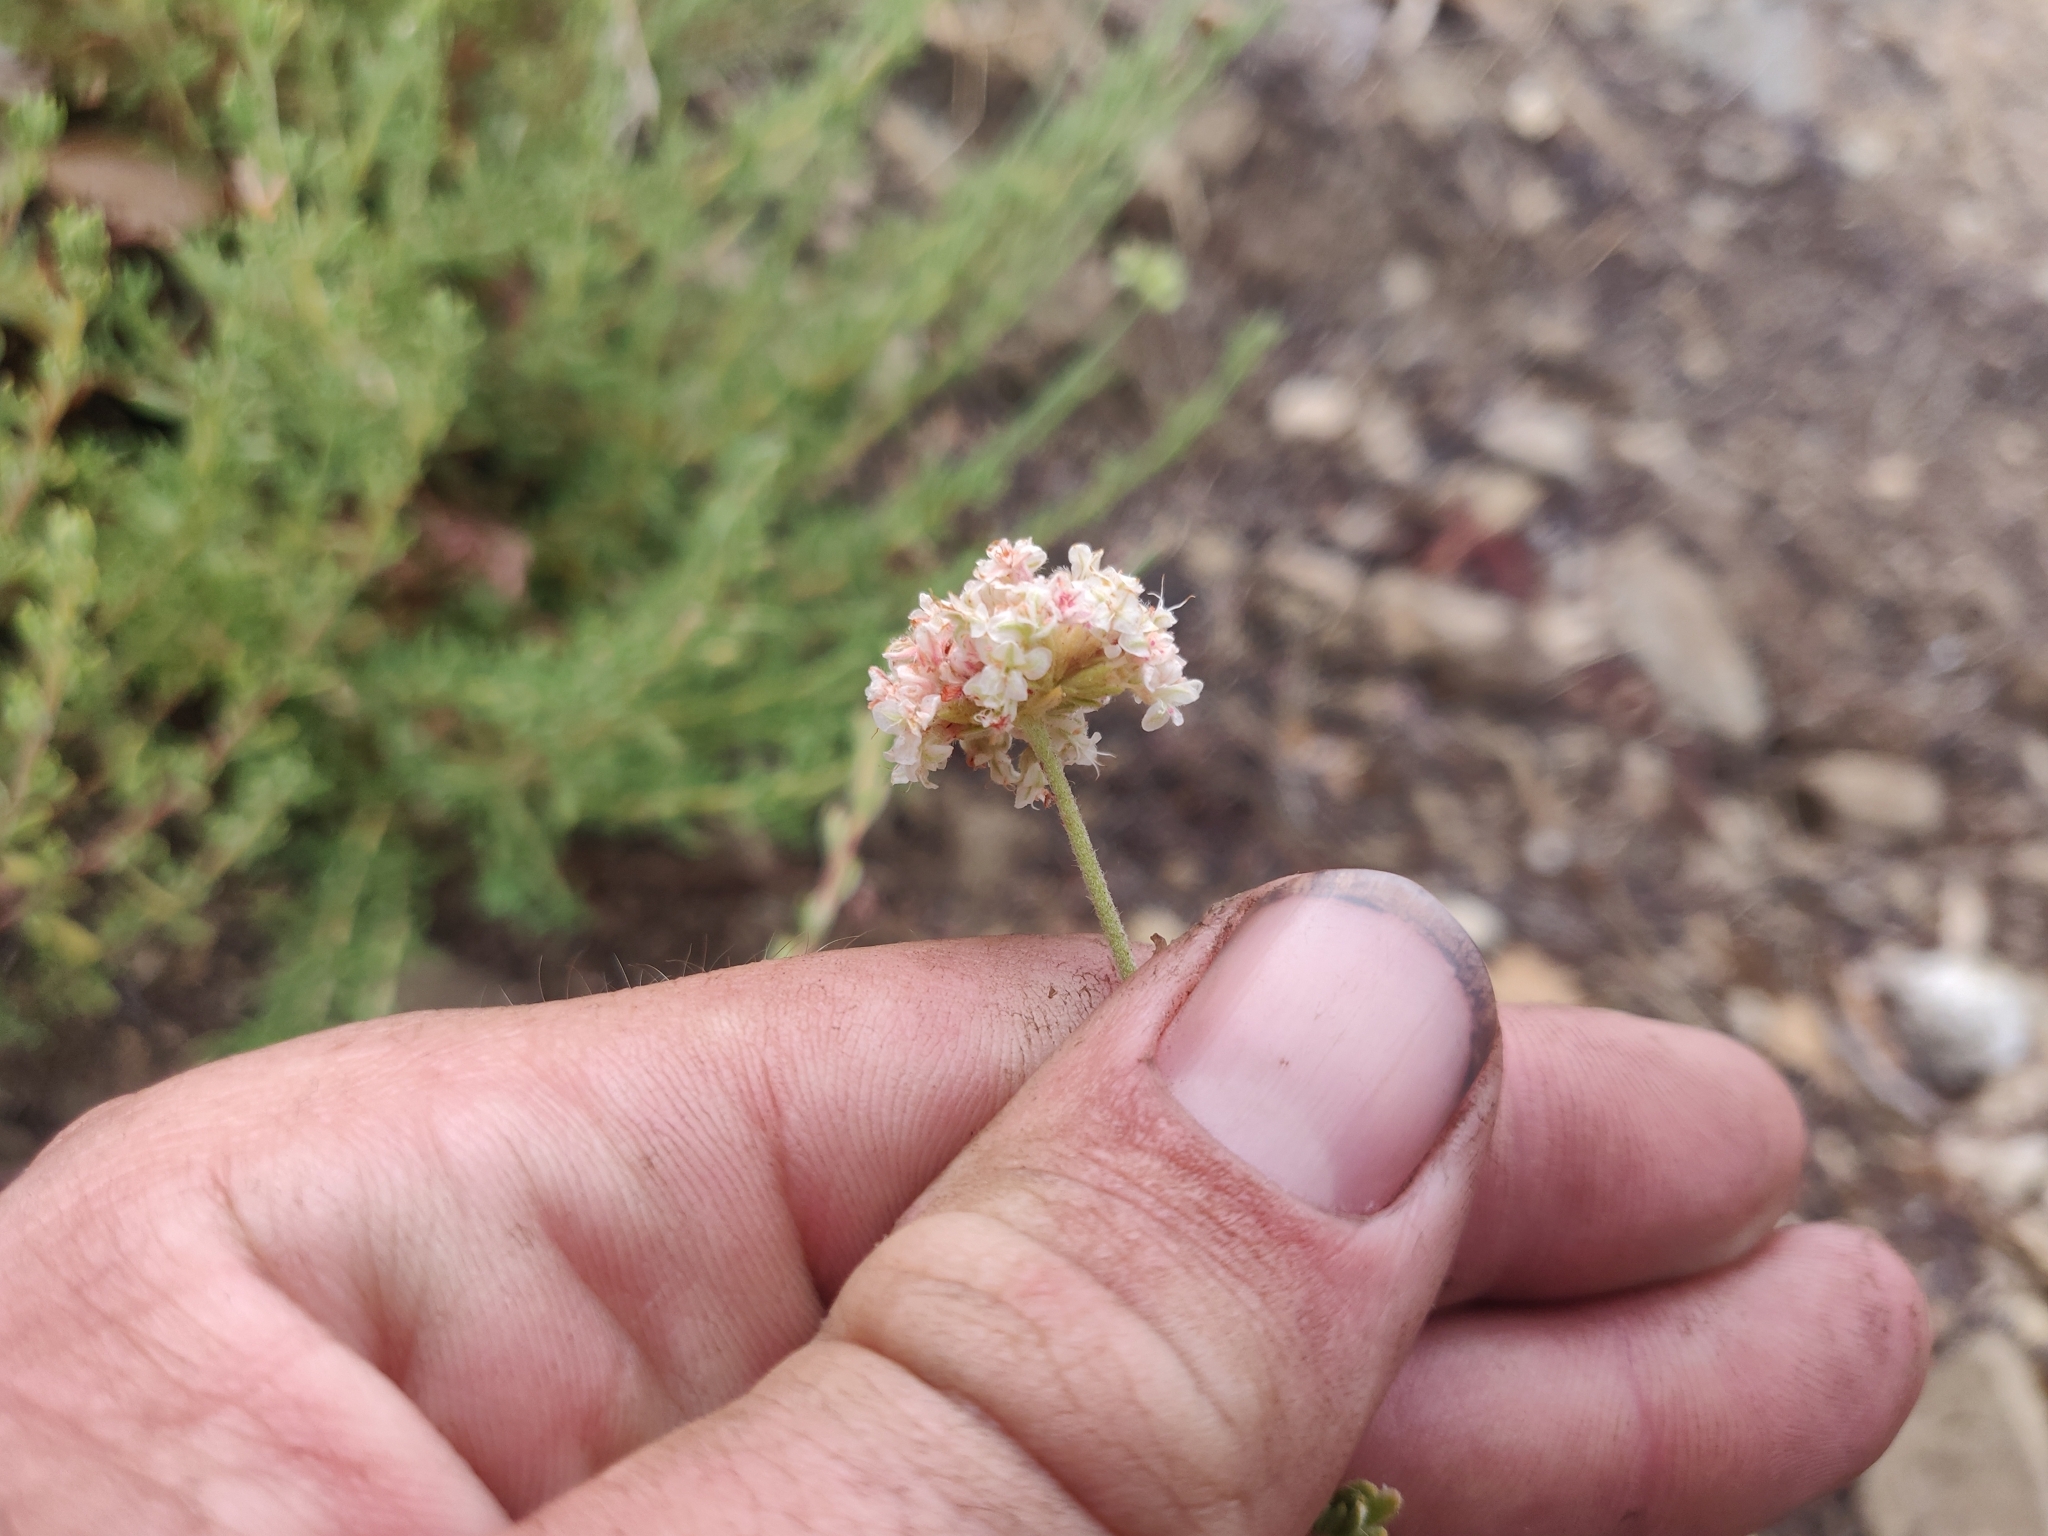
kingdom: Plantae
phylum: Tracheophyta
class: Magnoliopsida
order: Caryophyllales
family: Polygonaceae
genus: Eriogonum
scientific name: Eriogonum fasciculatum
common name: California wild buckwheat
